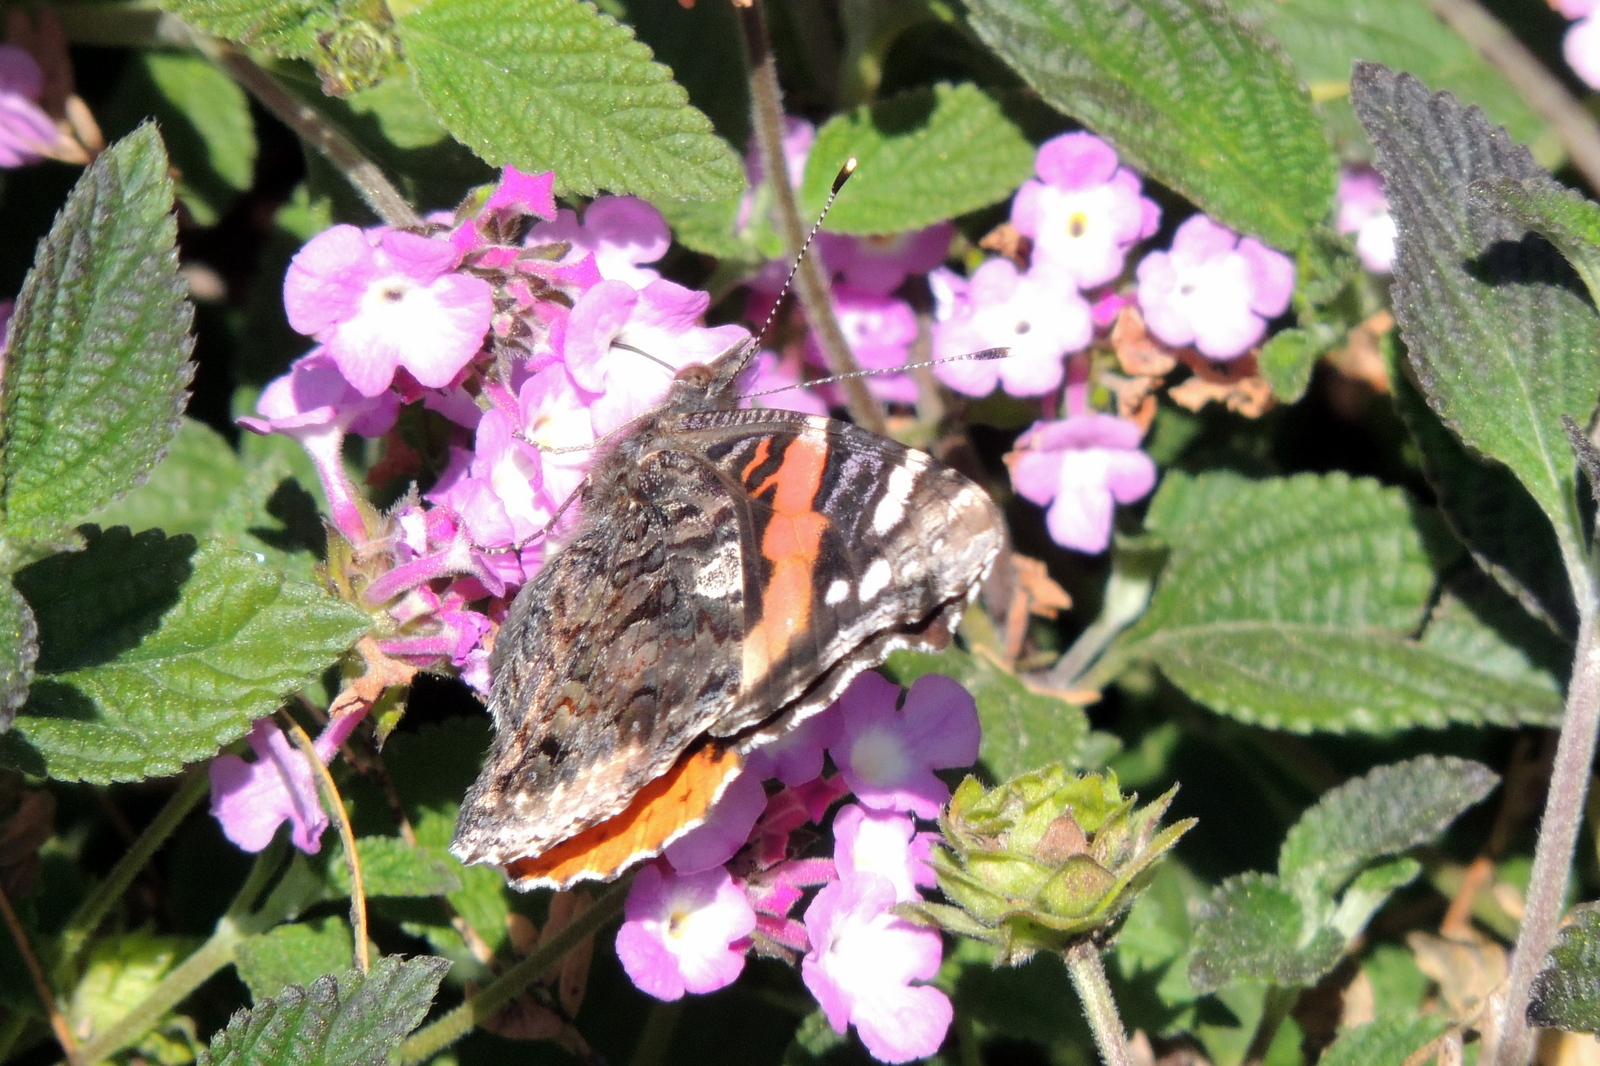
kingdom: Animalia
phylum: Arthropoda
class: Insecta
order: Lepidoptera
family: Nymphalidae
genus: Vanessa
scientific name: Vanessa cardui
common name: Painted lady
